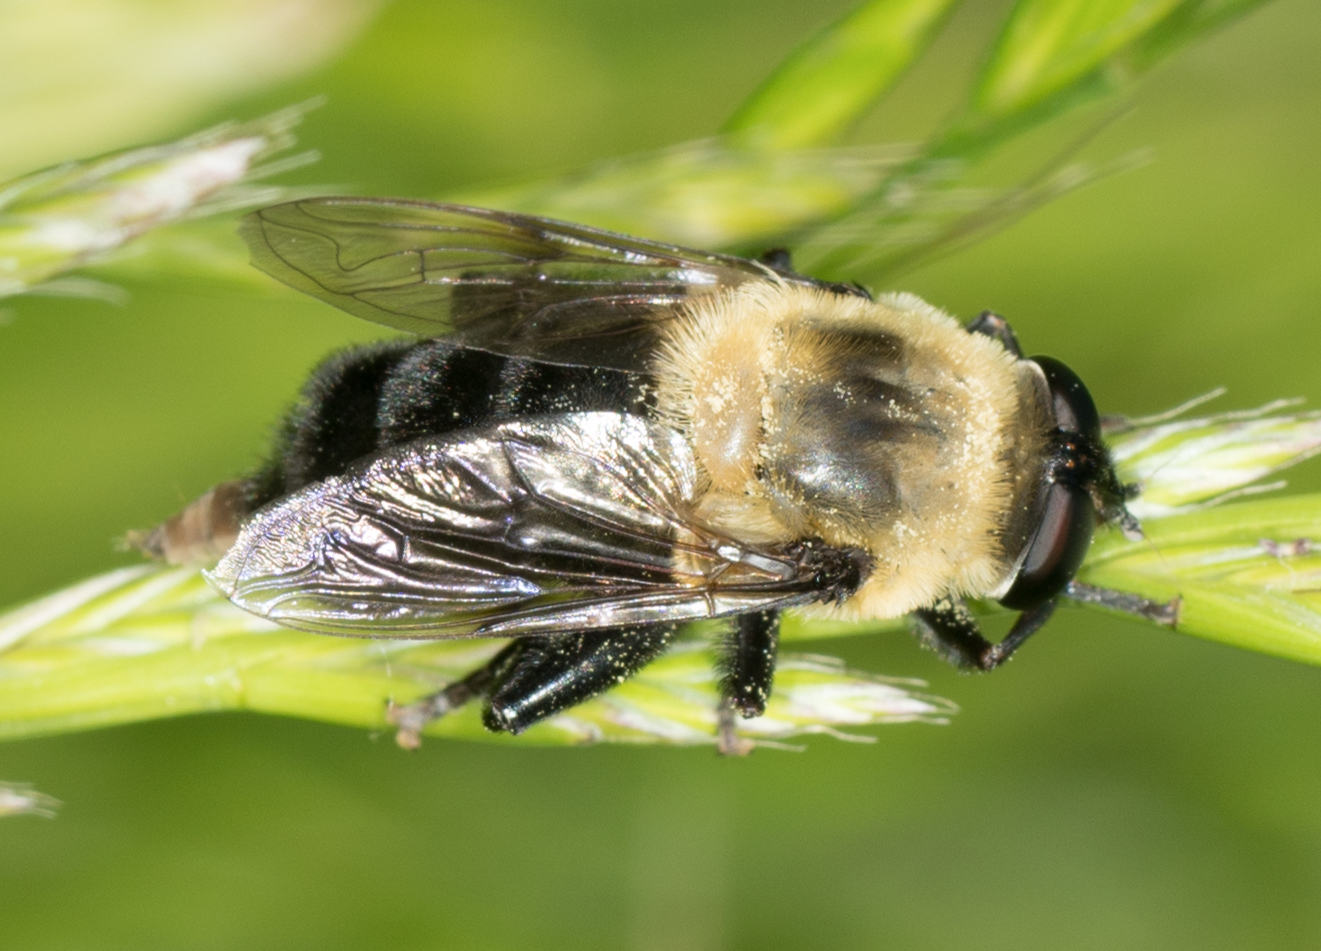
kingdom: Animalia
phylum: Arthropoda
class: Insecta
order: Diptera
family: Syrphidae
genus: Imatisma
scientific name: Imatisma bautias
